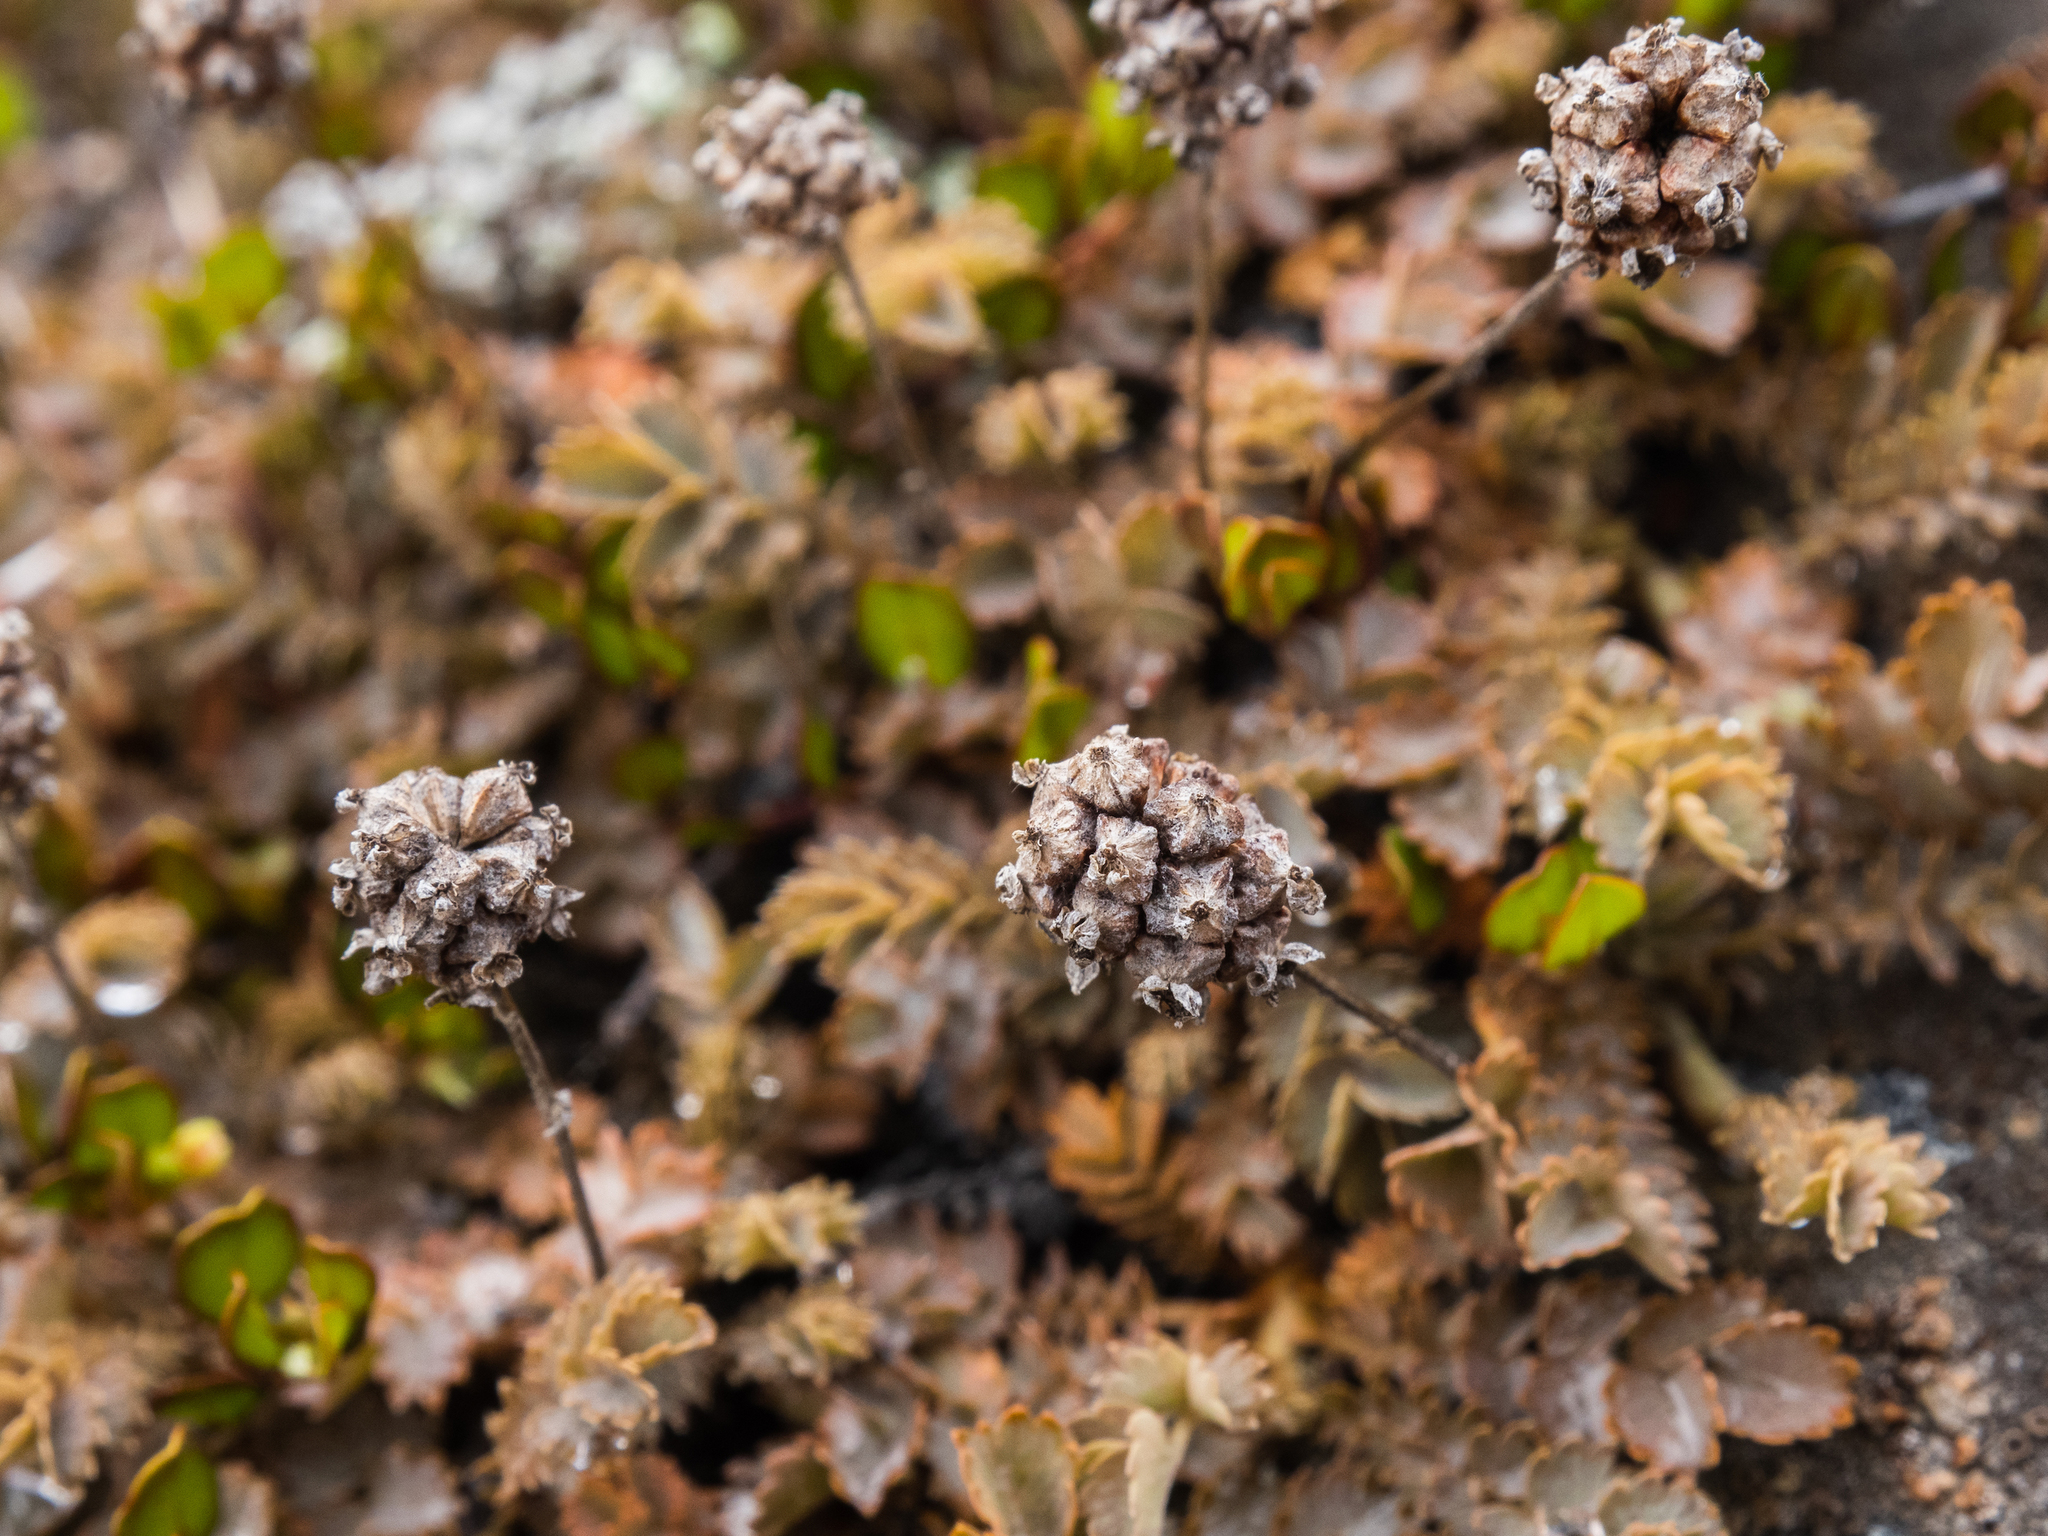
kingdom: Plantae
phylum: Tracheophyta
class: Magnoliopsida
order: Rosales
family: Rosaceae
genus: Acaena
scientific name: Acaena inermis
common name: Spineless acaena
